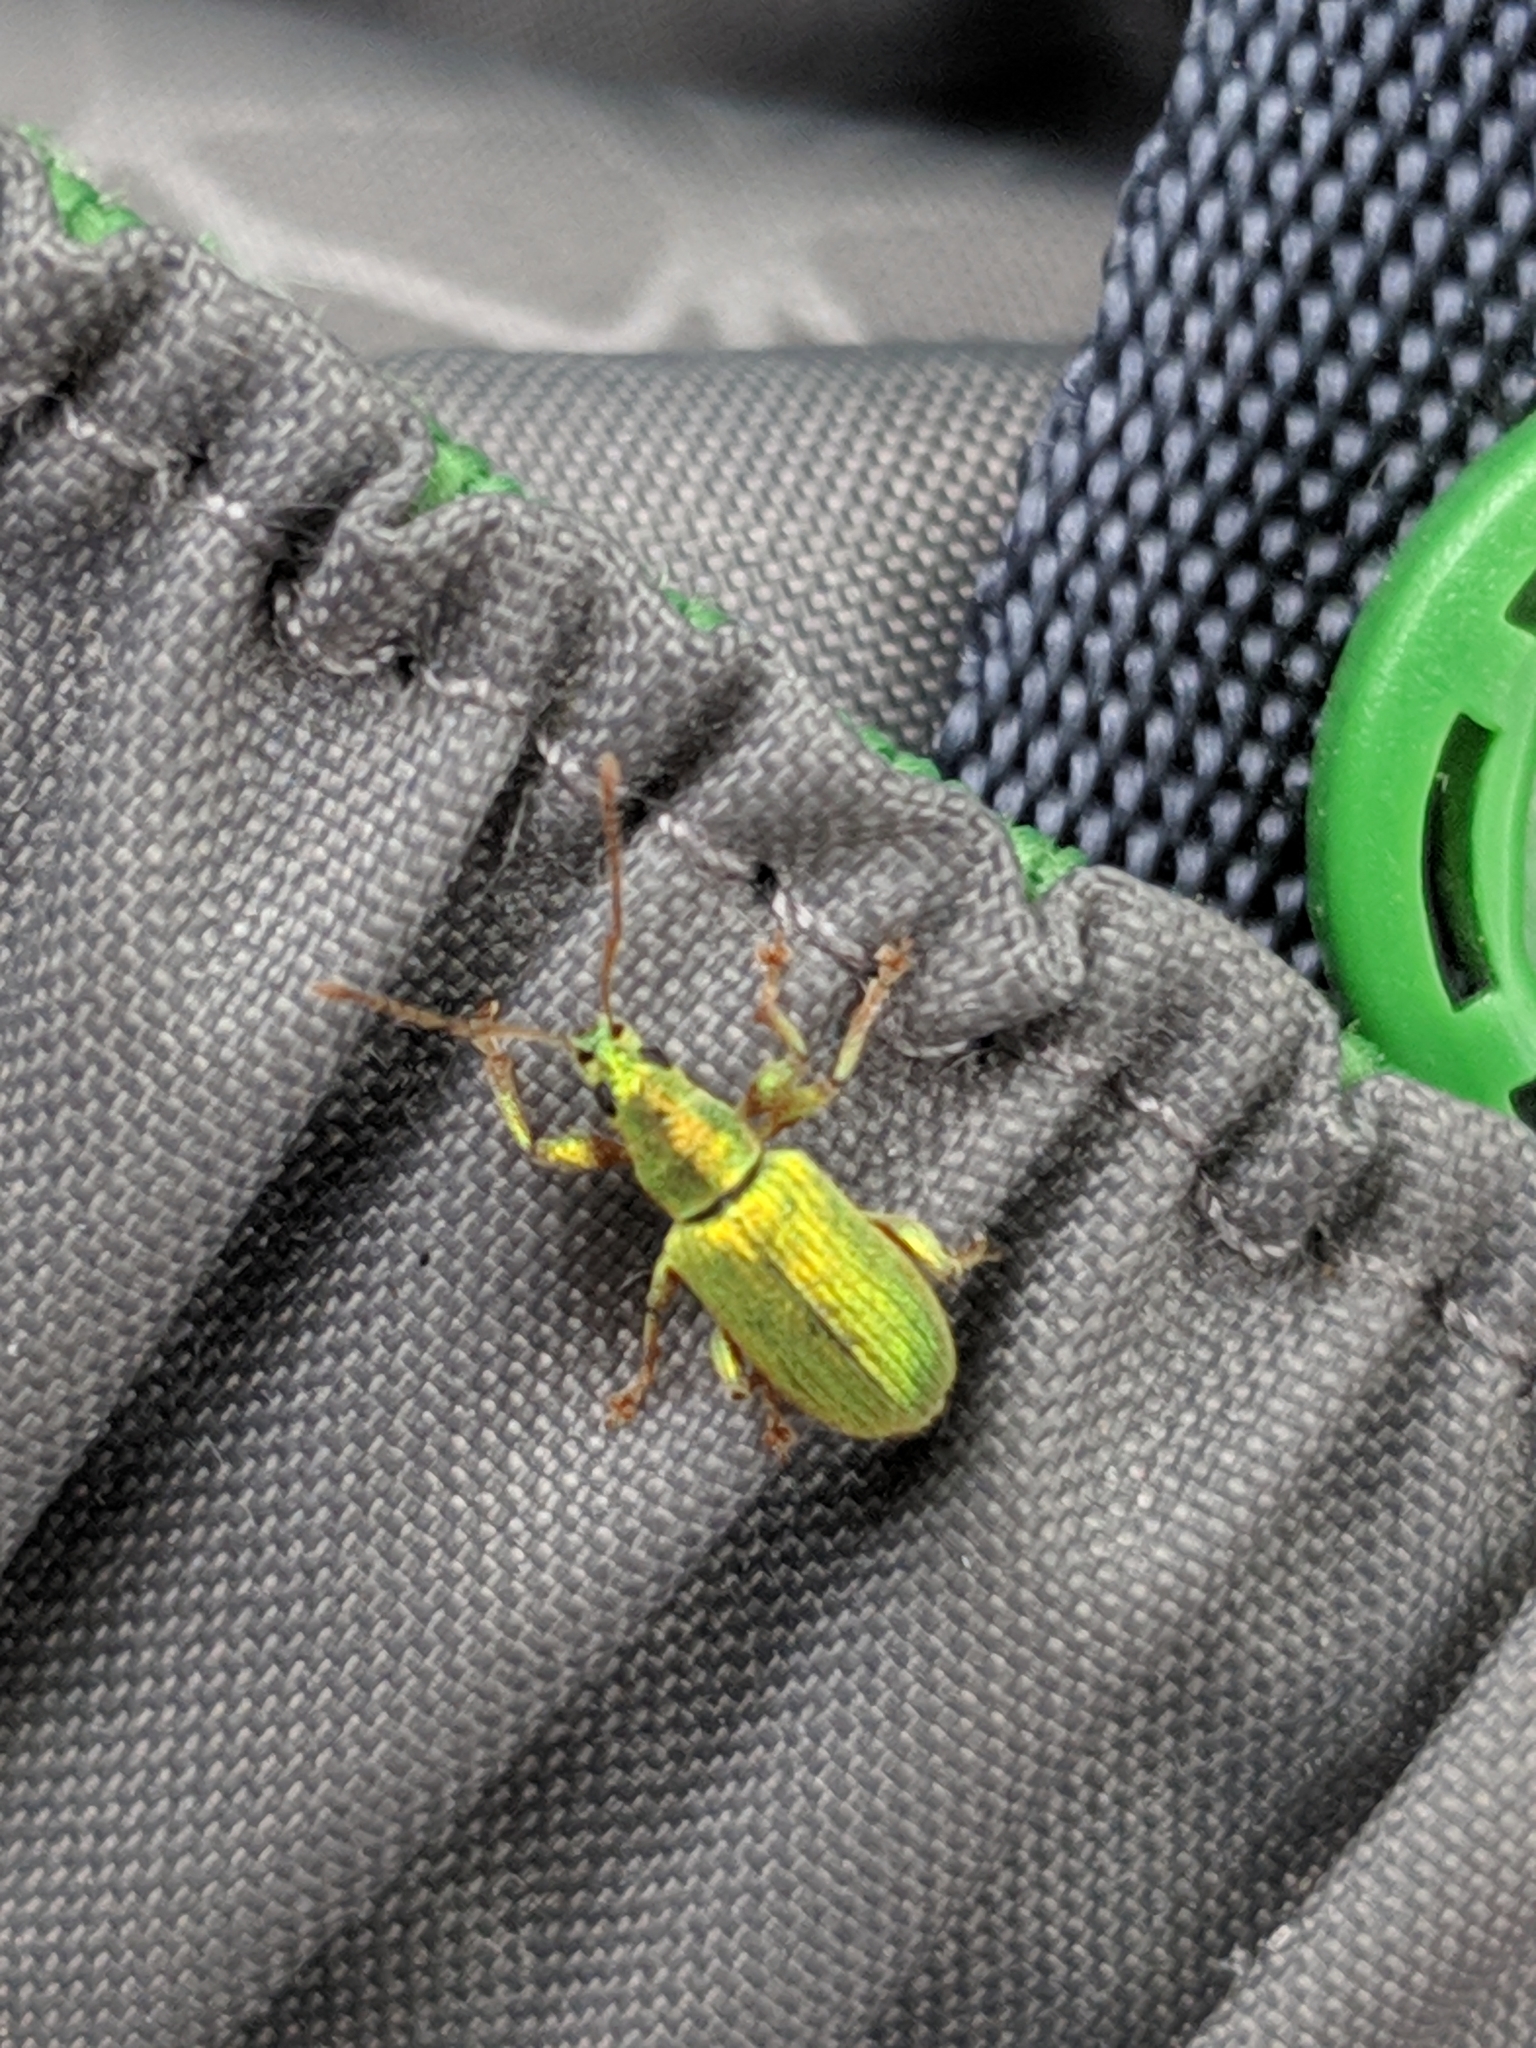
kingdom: Animalia
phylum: Arthropoda
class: Insecta
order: Coleoptera
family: Curculionidae
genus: Phyllobius
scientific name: Phyllobius argentatus
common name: Silver-green leaf weevil
